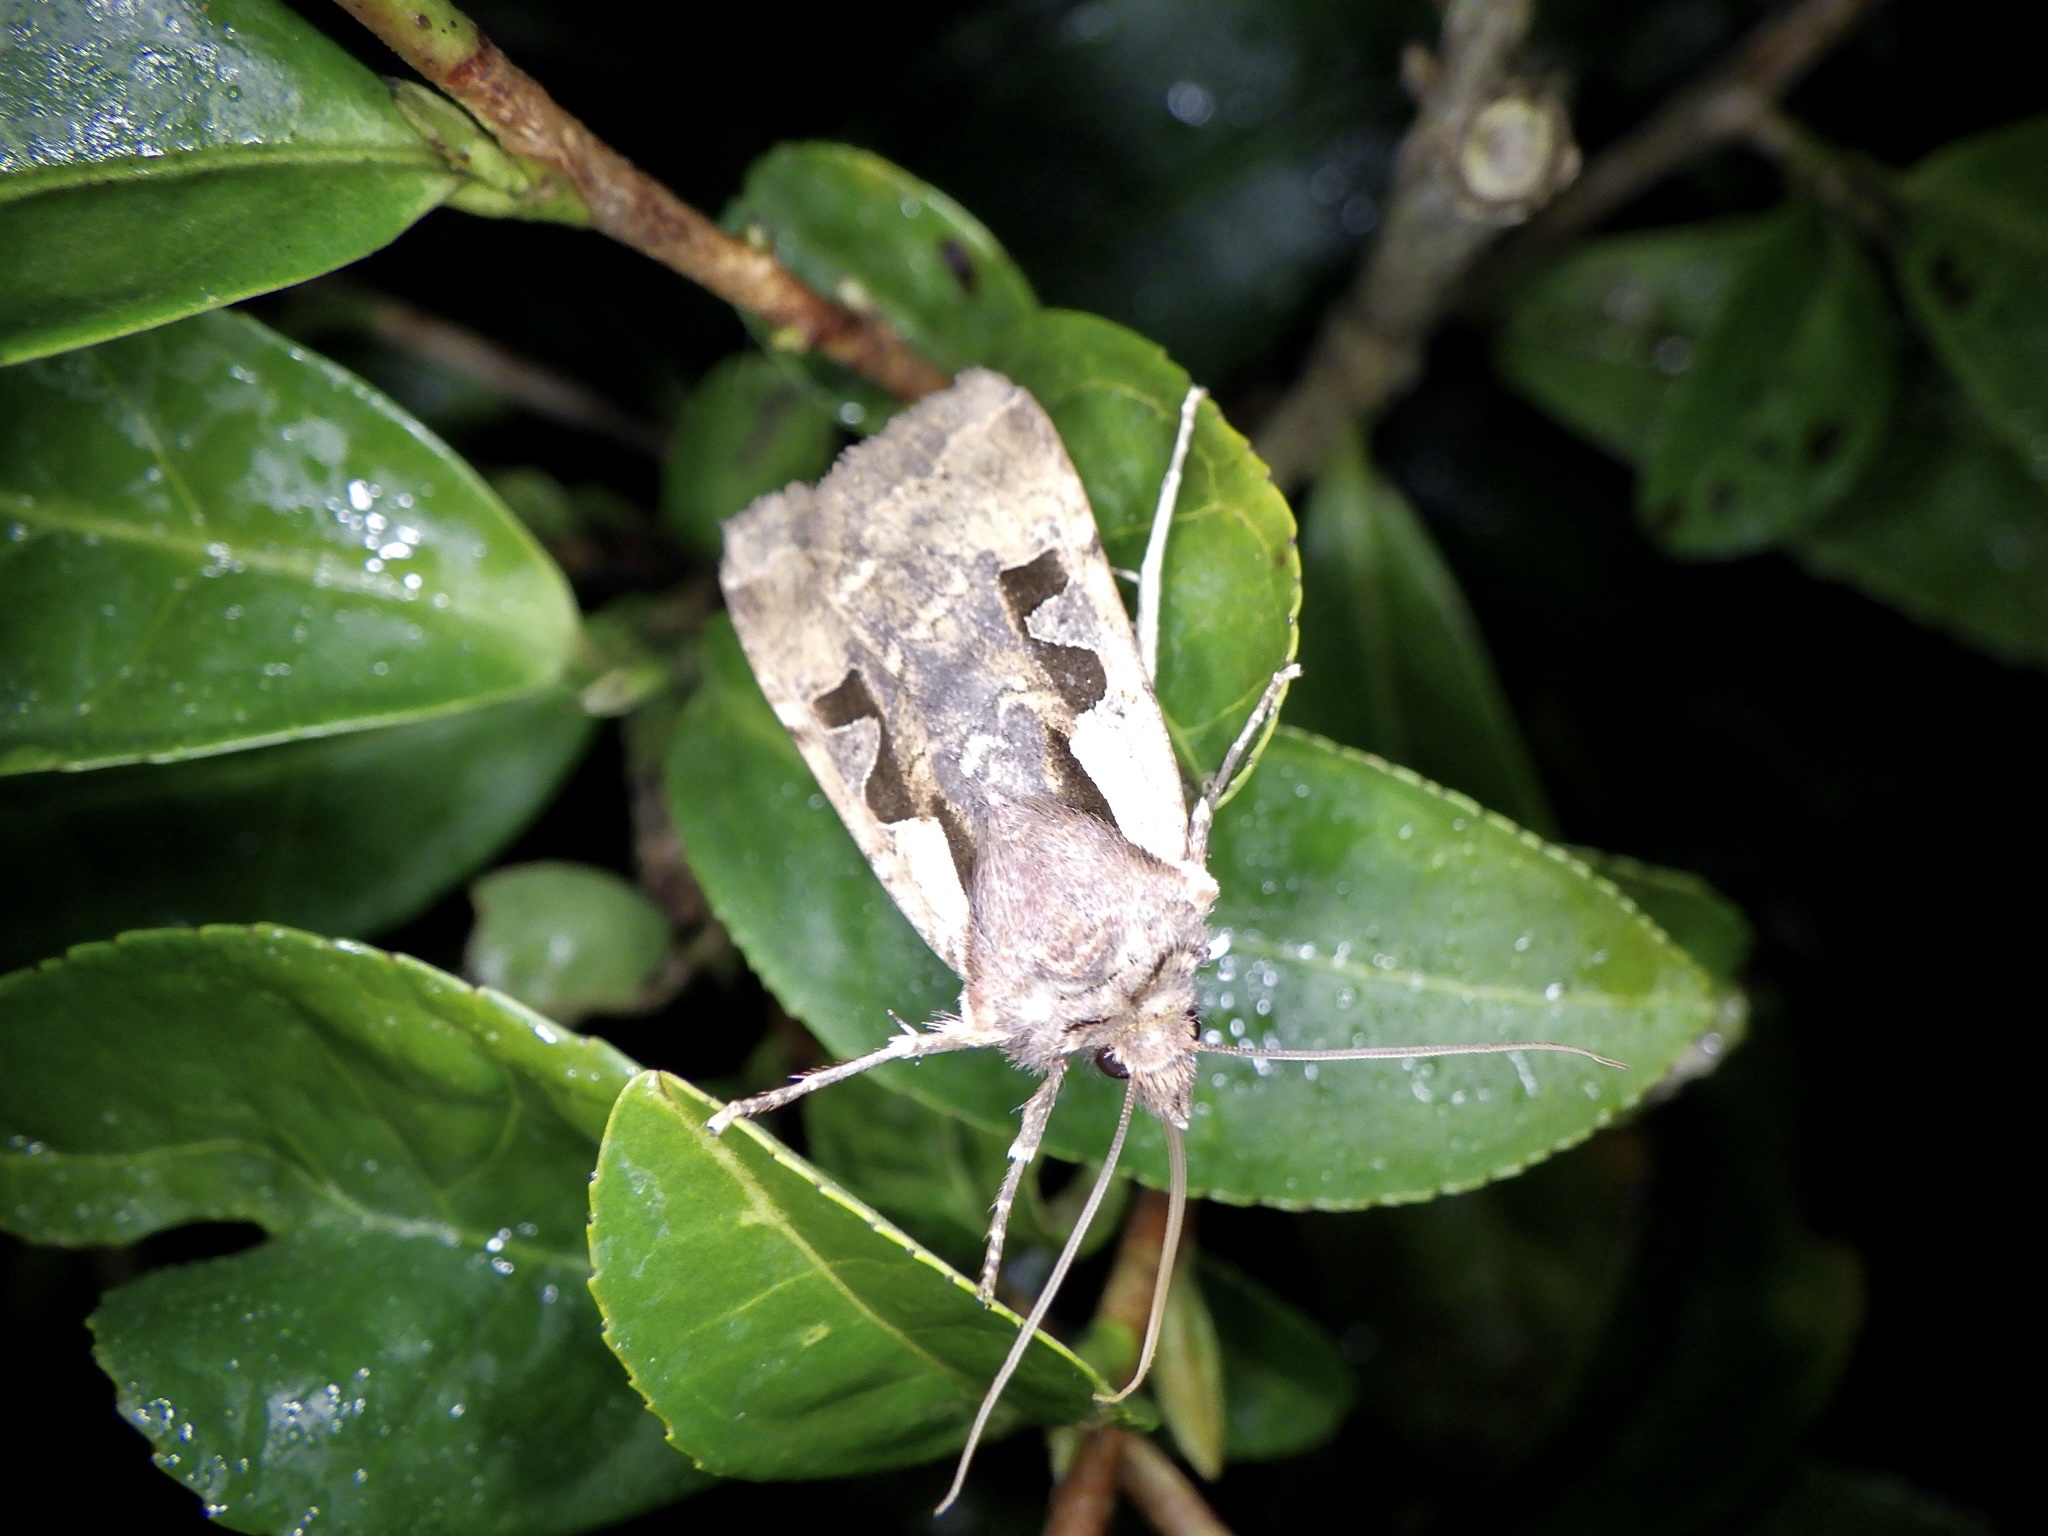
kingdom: Animalia
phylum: Arthropoda
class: Insecta
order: Lepidoptera
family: Noctuidae
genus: Sugitania
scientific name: Sugitania lepida
